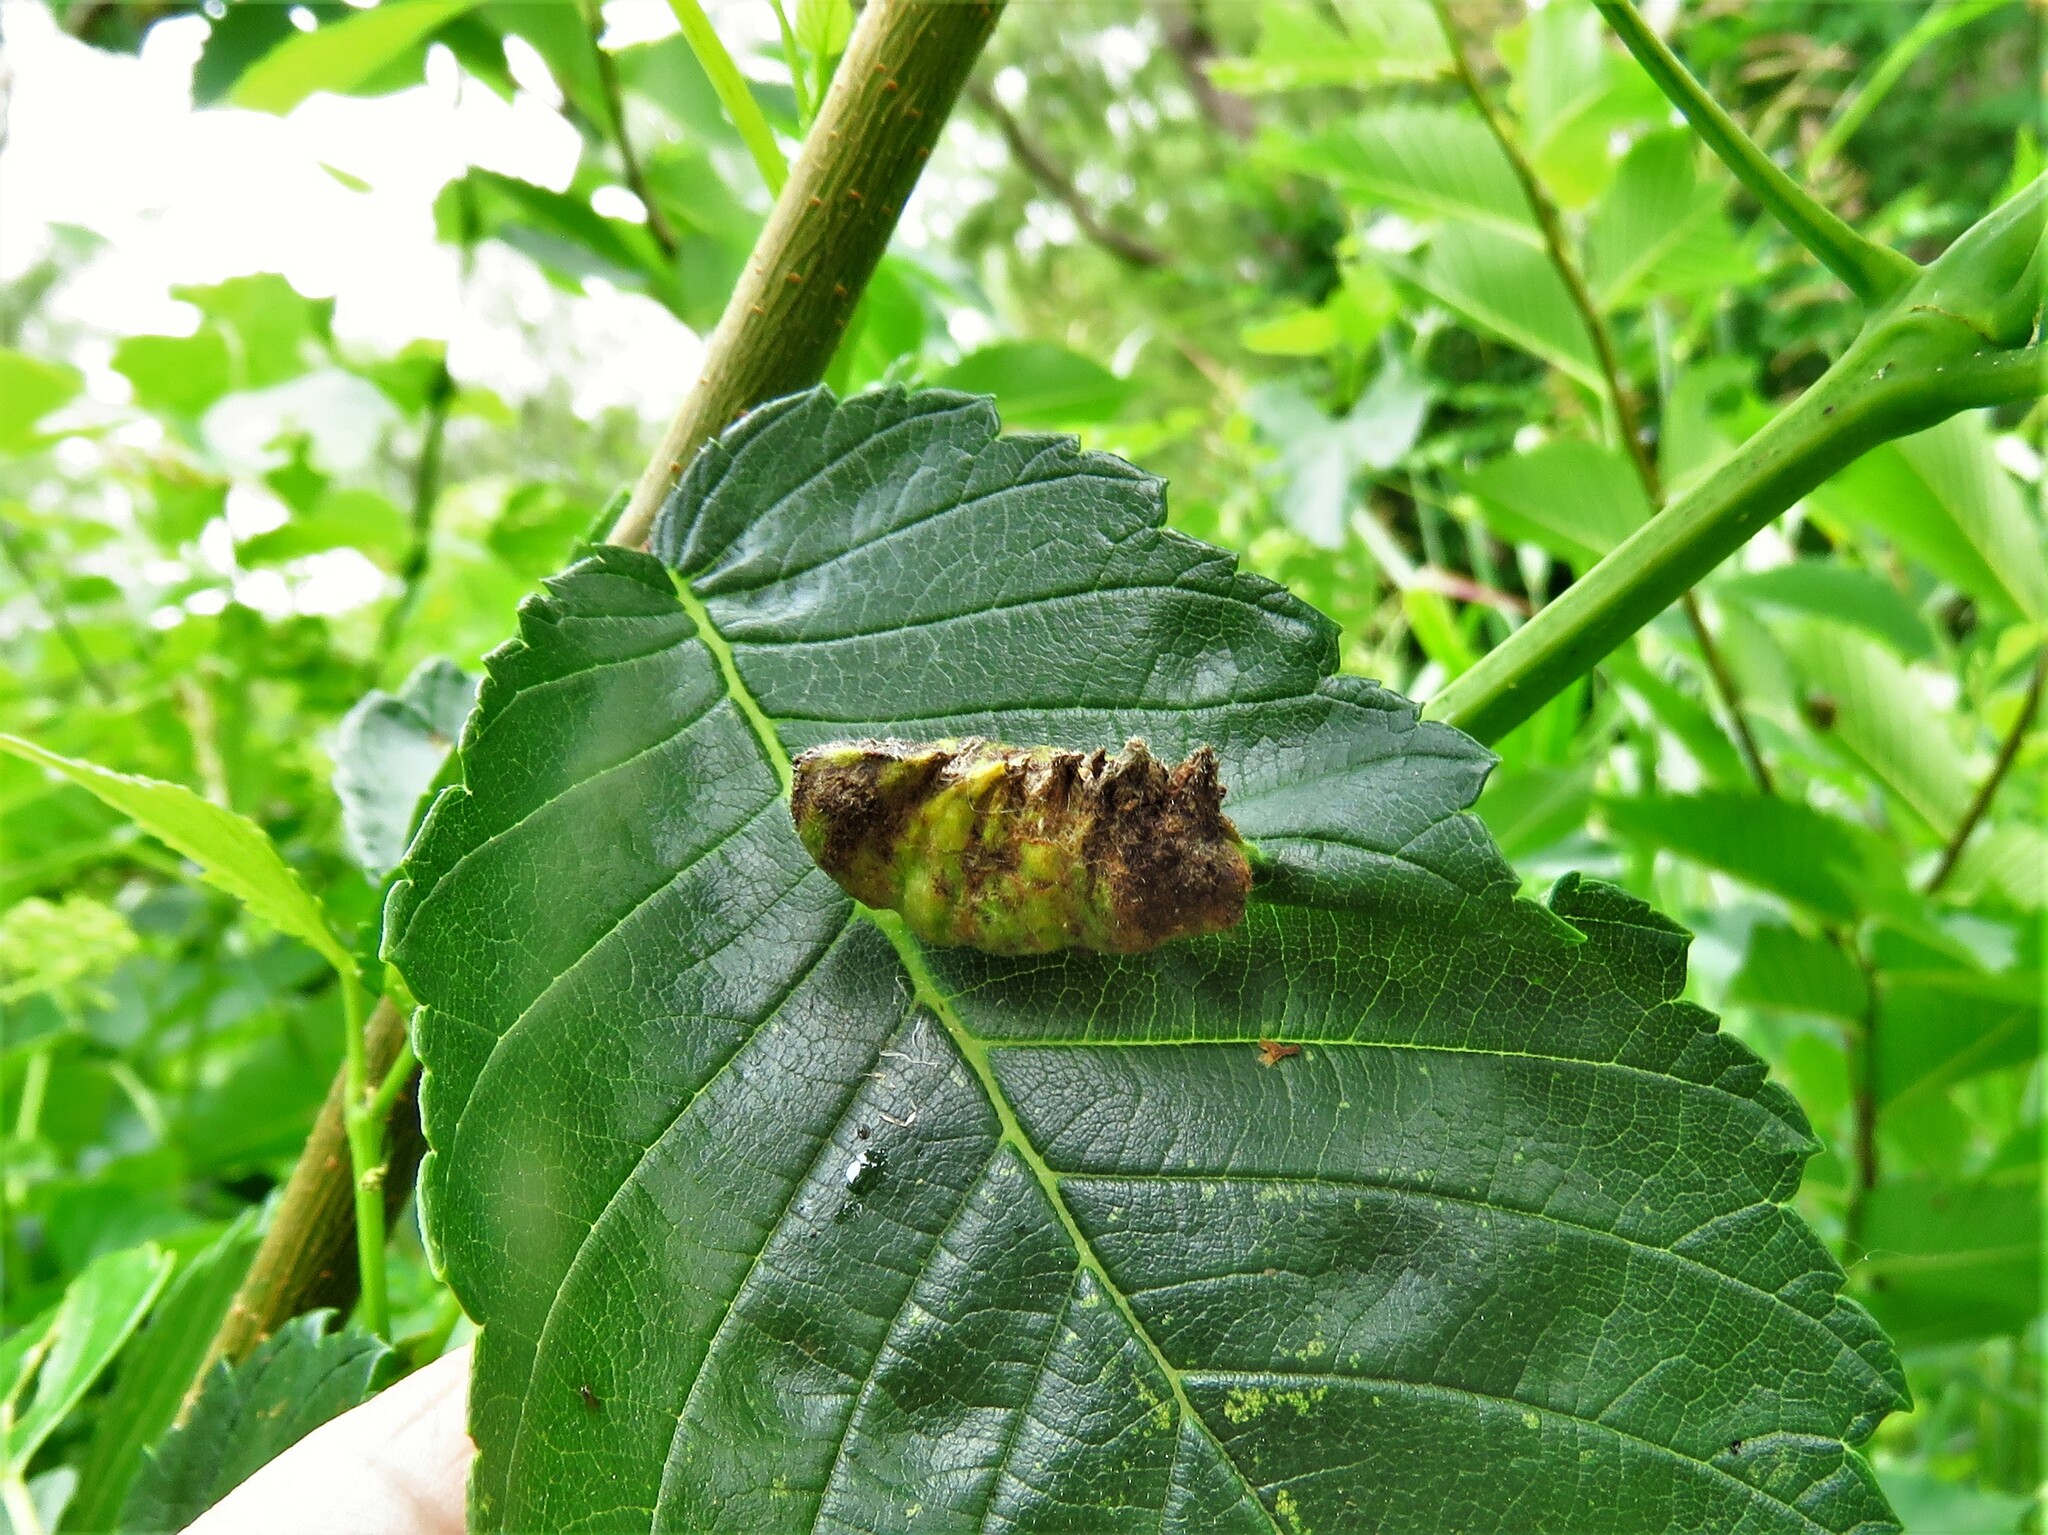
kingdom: Animalia
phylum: Arthropoda
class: Insecta
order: Hemiptera
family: Aphididae
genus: Colopha
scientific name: Colopha ulmicola
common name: Elm cockscombgall aphid
